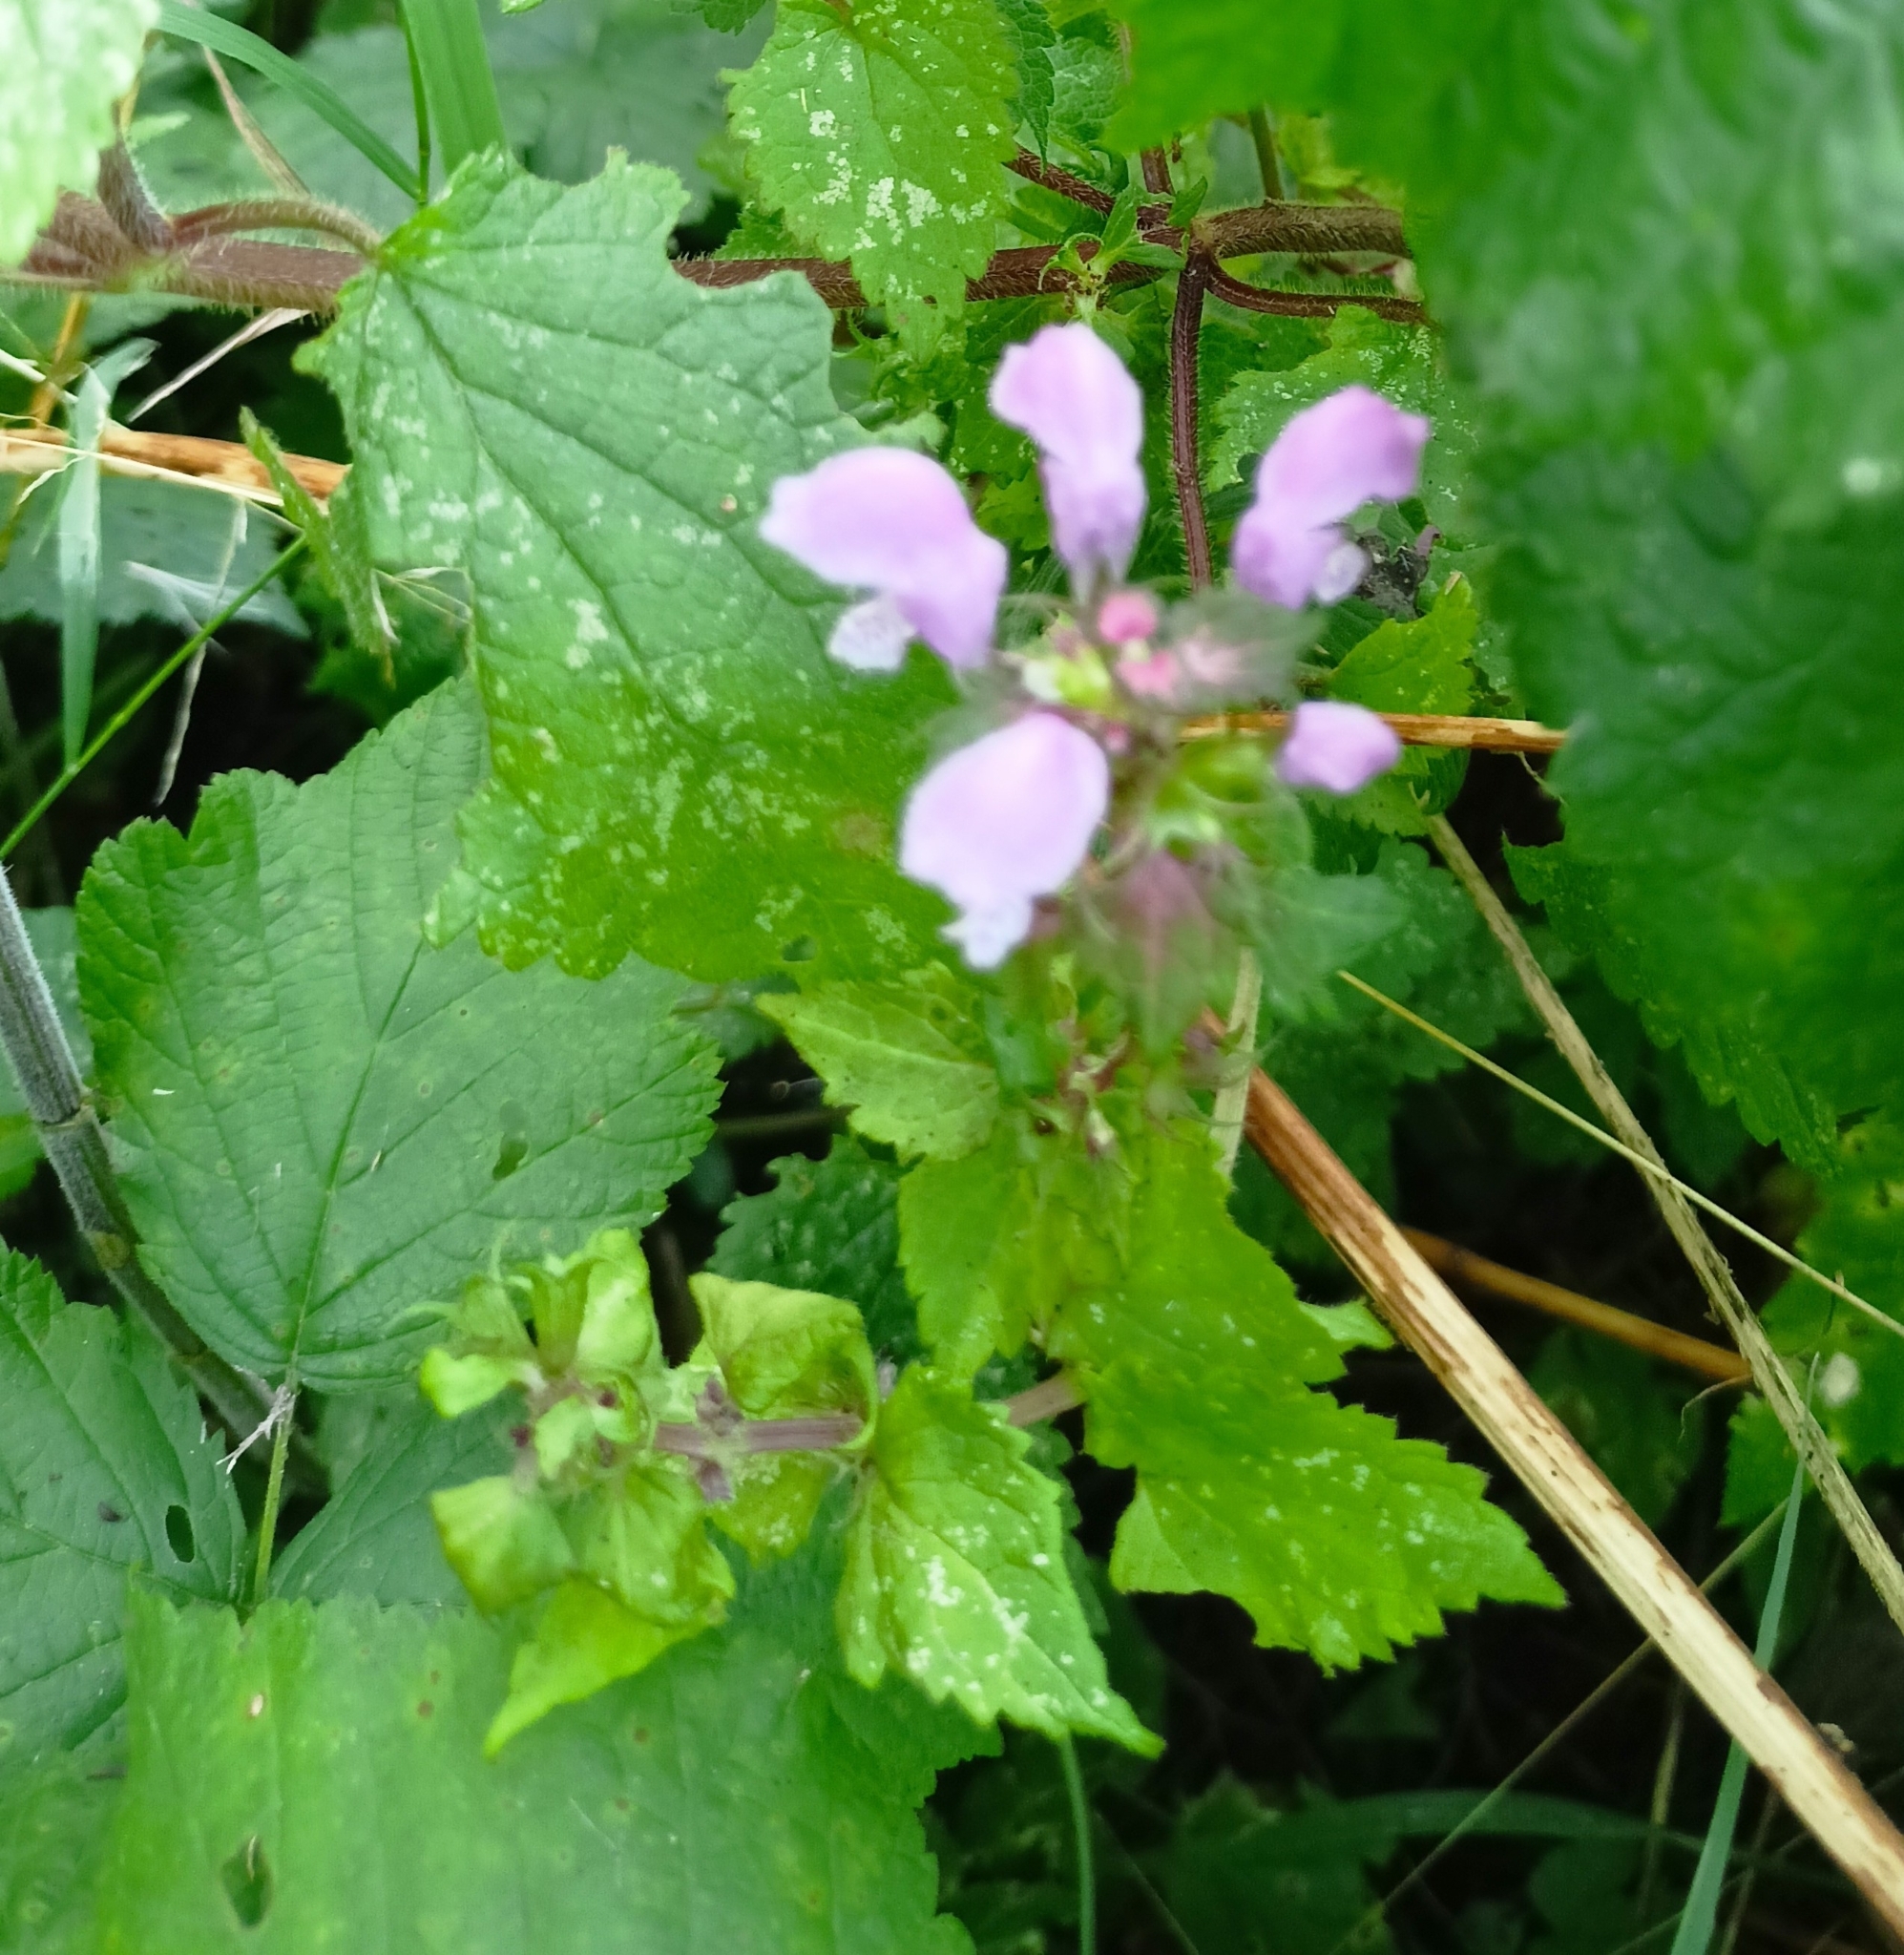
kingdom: Plantae
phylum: Tracheophyta
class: Magnoliopsida
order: Lamiales
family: Lamiaceae
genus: Lamium
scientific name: Lamium maculatum
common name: Spotted dead-nettle
